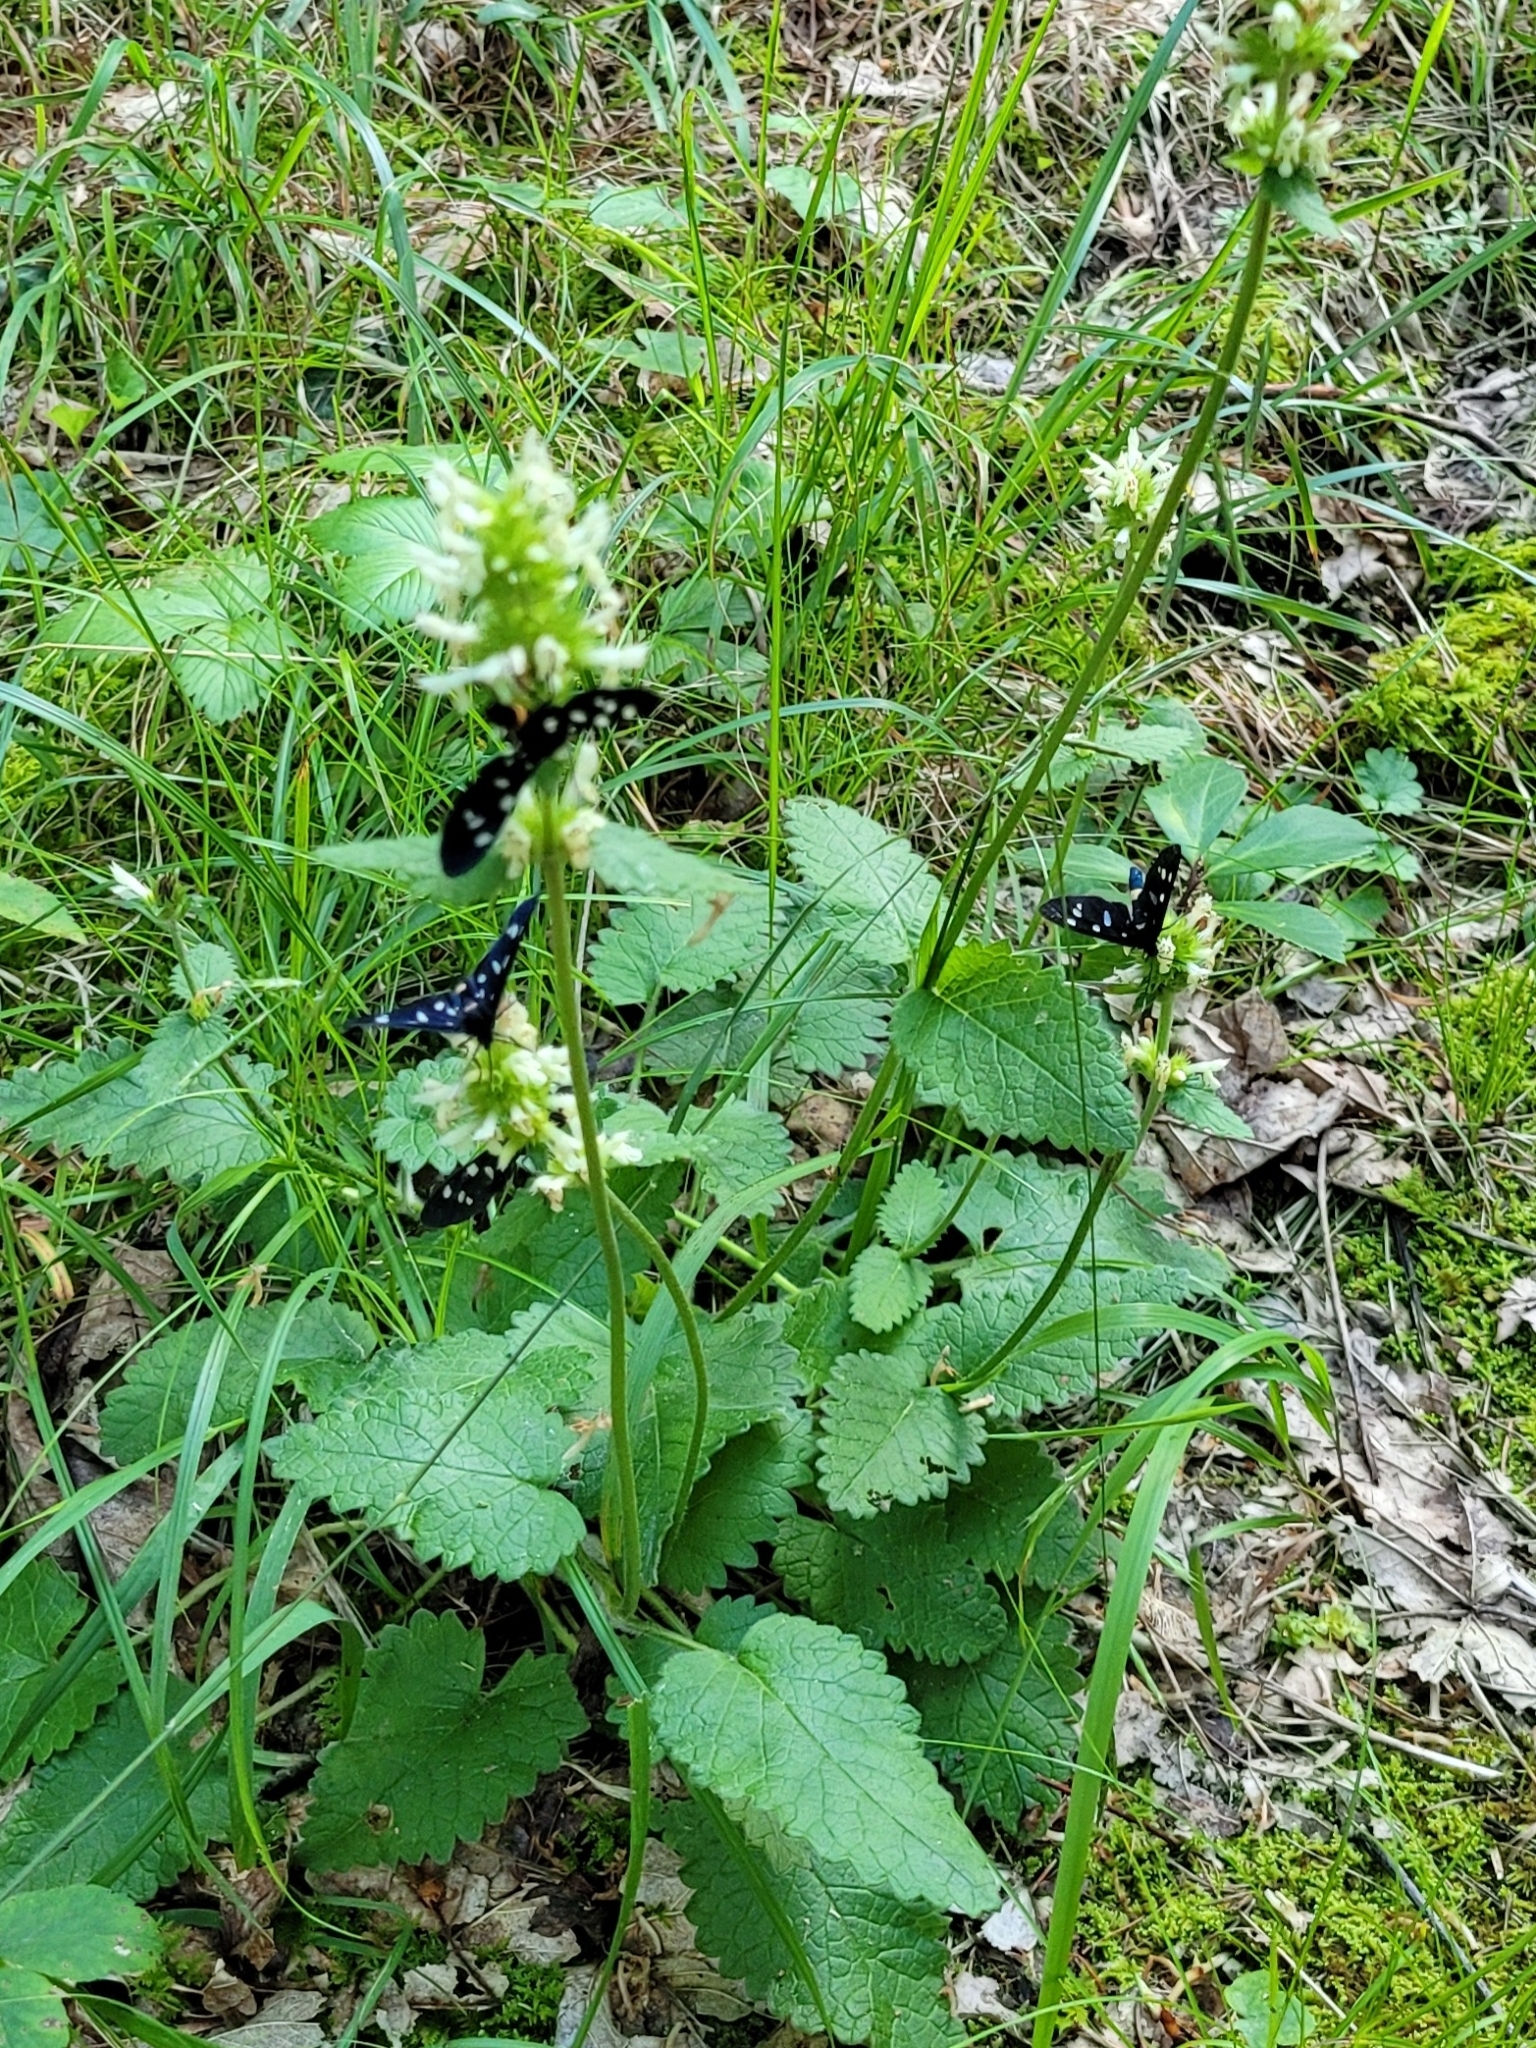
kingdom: Animalia
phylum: Arthropoda
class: Insecta
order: Lepidoptera
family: Erebidae
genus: Amata
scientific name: Amata phegea
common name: Nine-spotted
